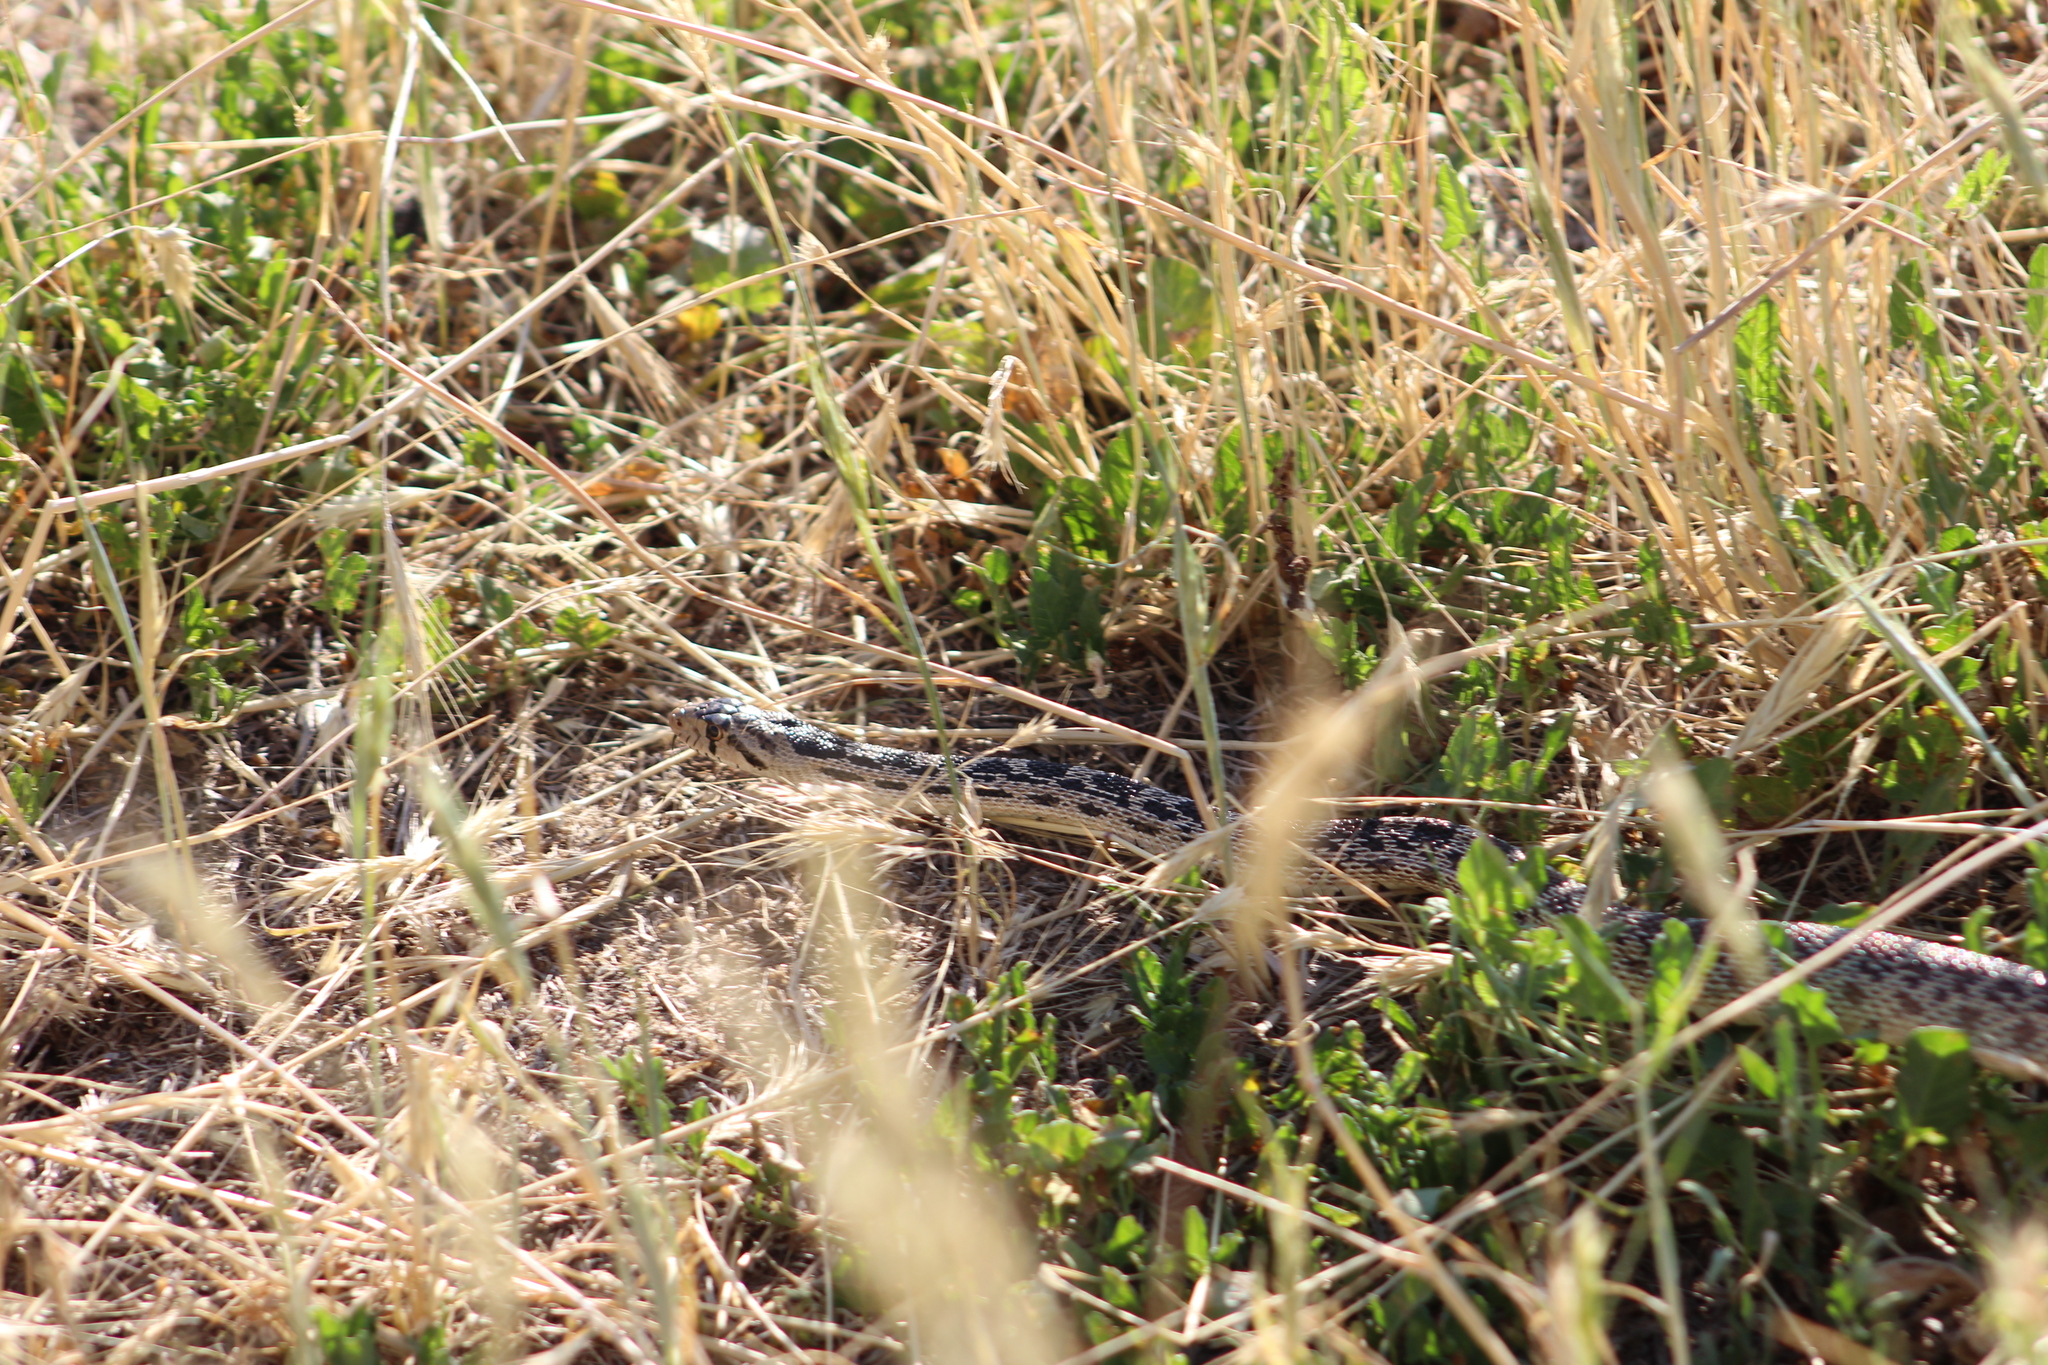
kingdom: Animalia
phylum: Chordata
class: Squamata
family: Colubridae
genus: Pituophis
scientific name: Pituophis catenifer
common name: Gopher snake
